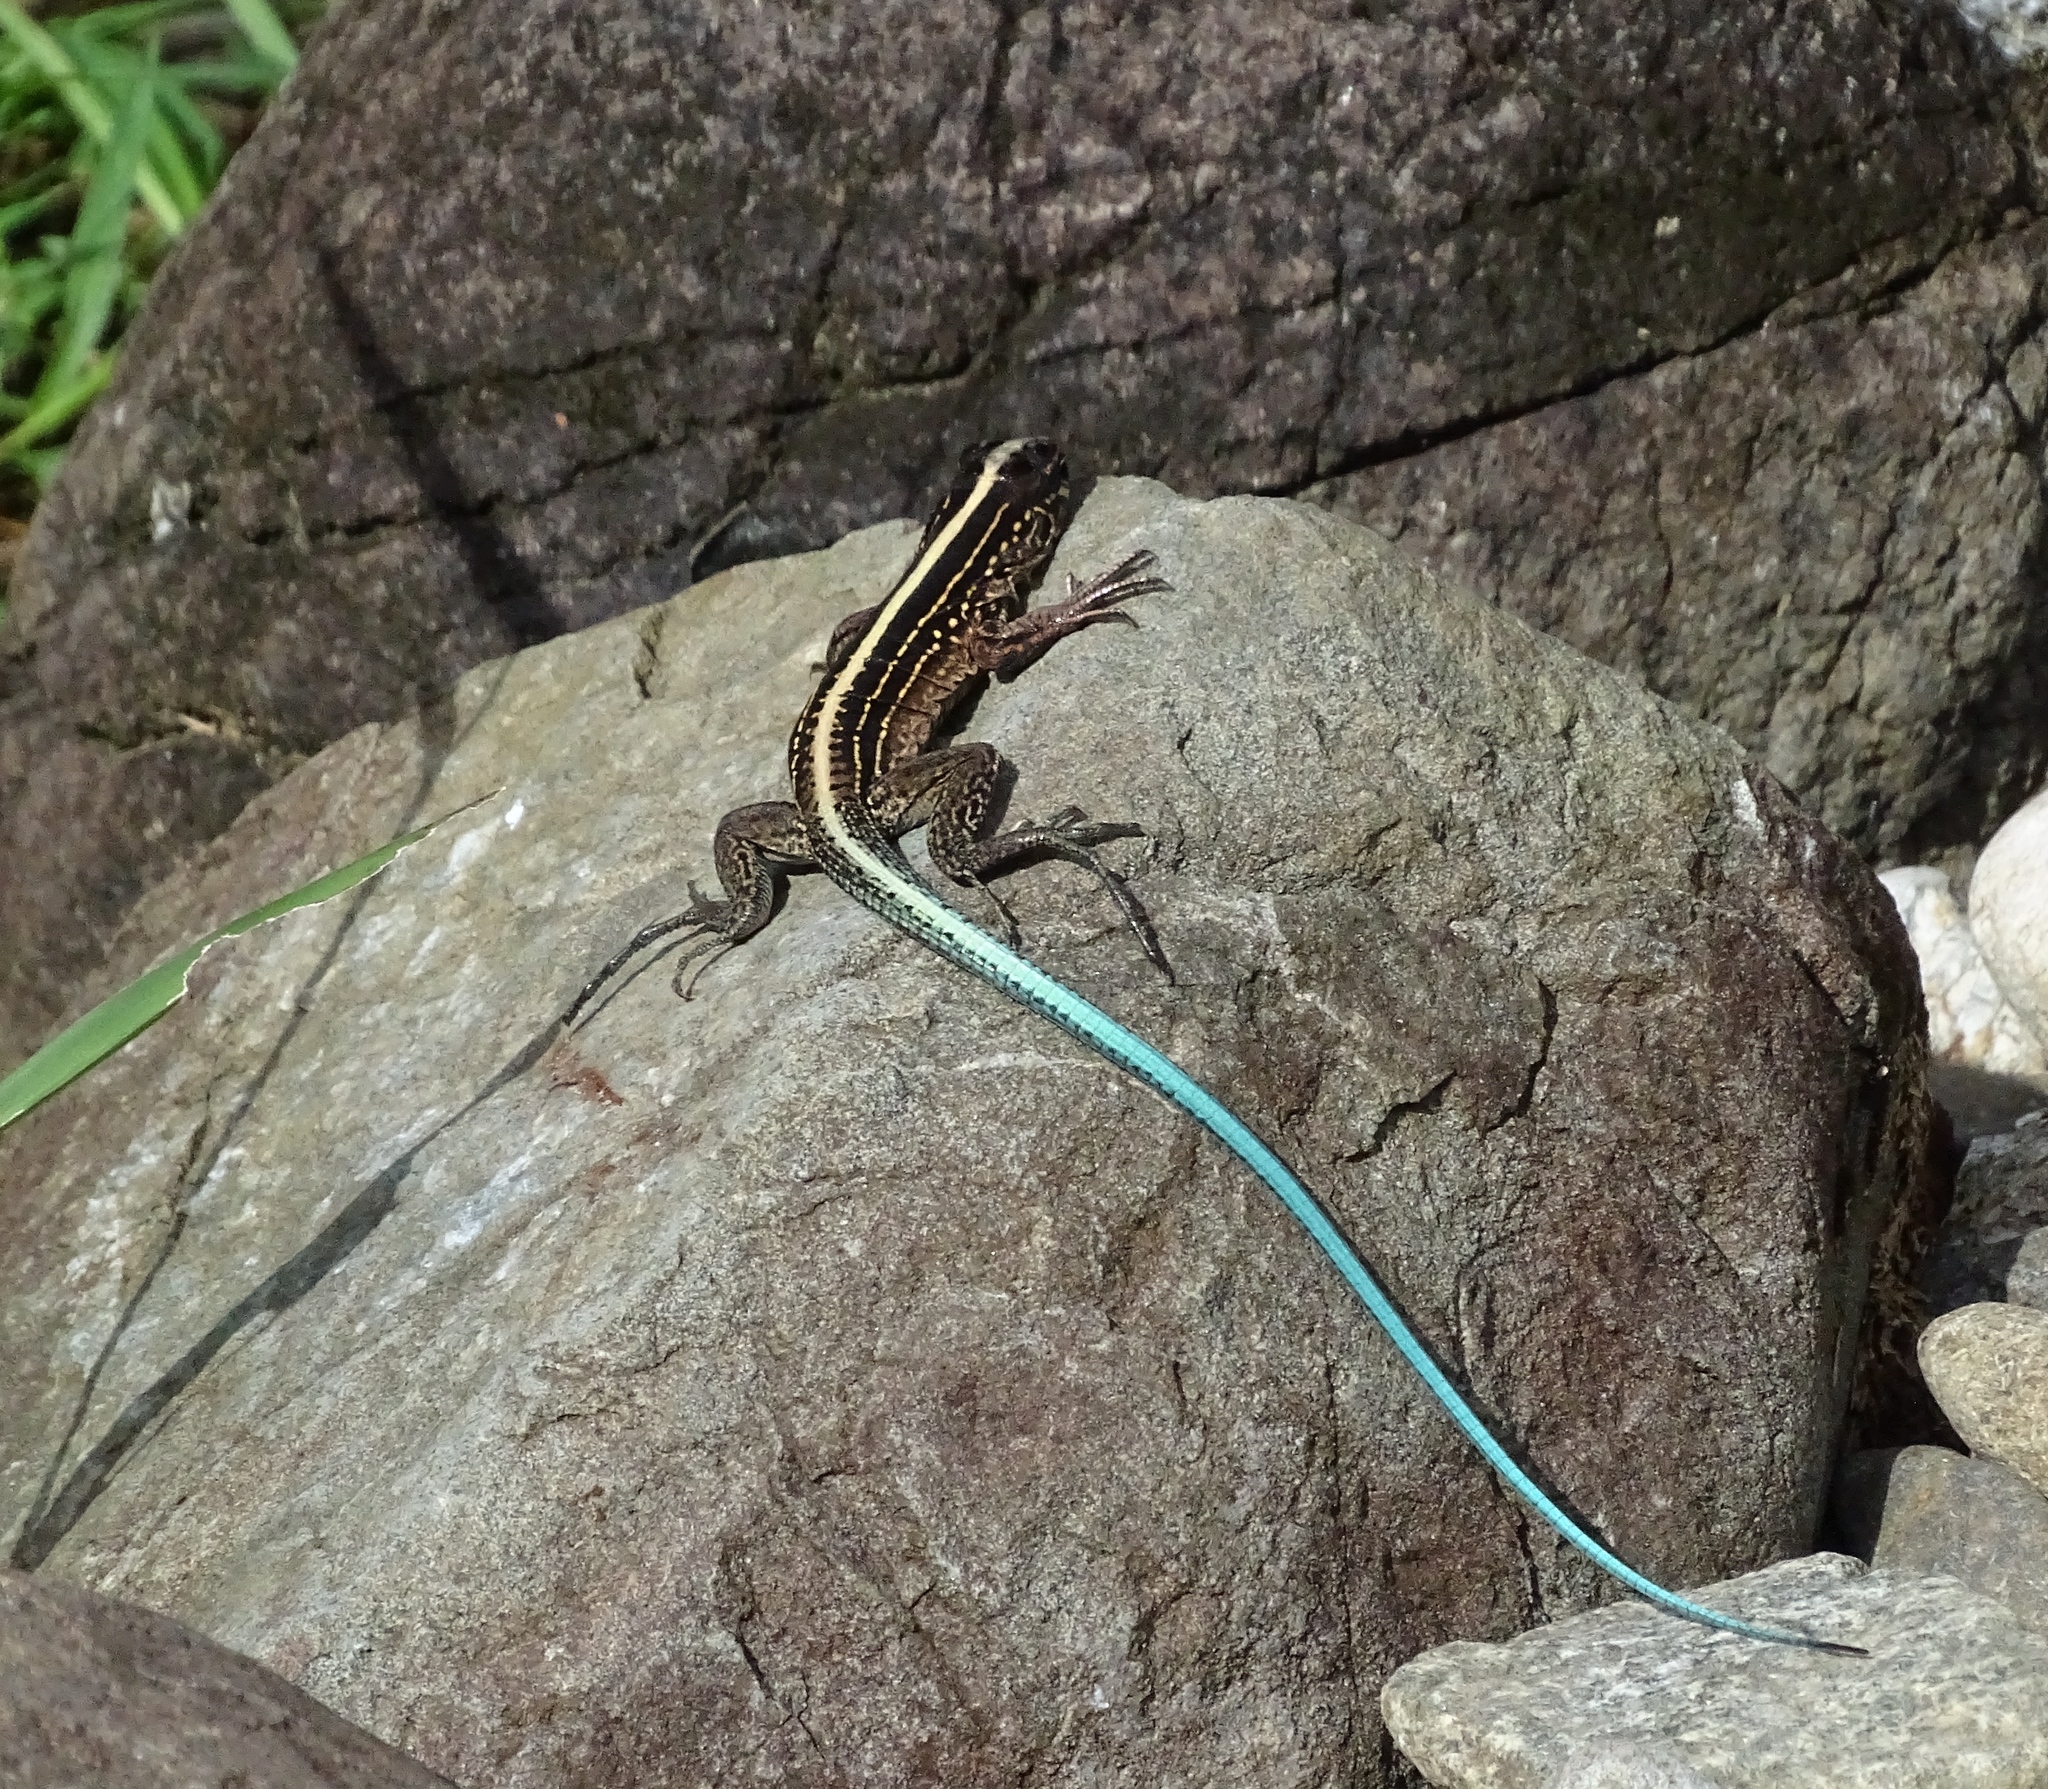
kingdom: Animalia
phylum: Chordata
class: Squamata
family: Teiidae
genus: Holcosus
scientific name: Holcosus festivus
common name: Middle american ameiva
